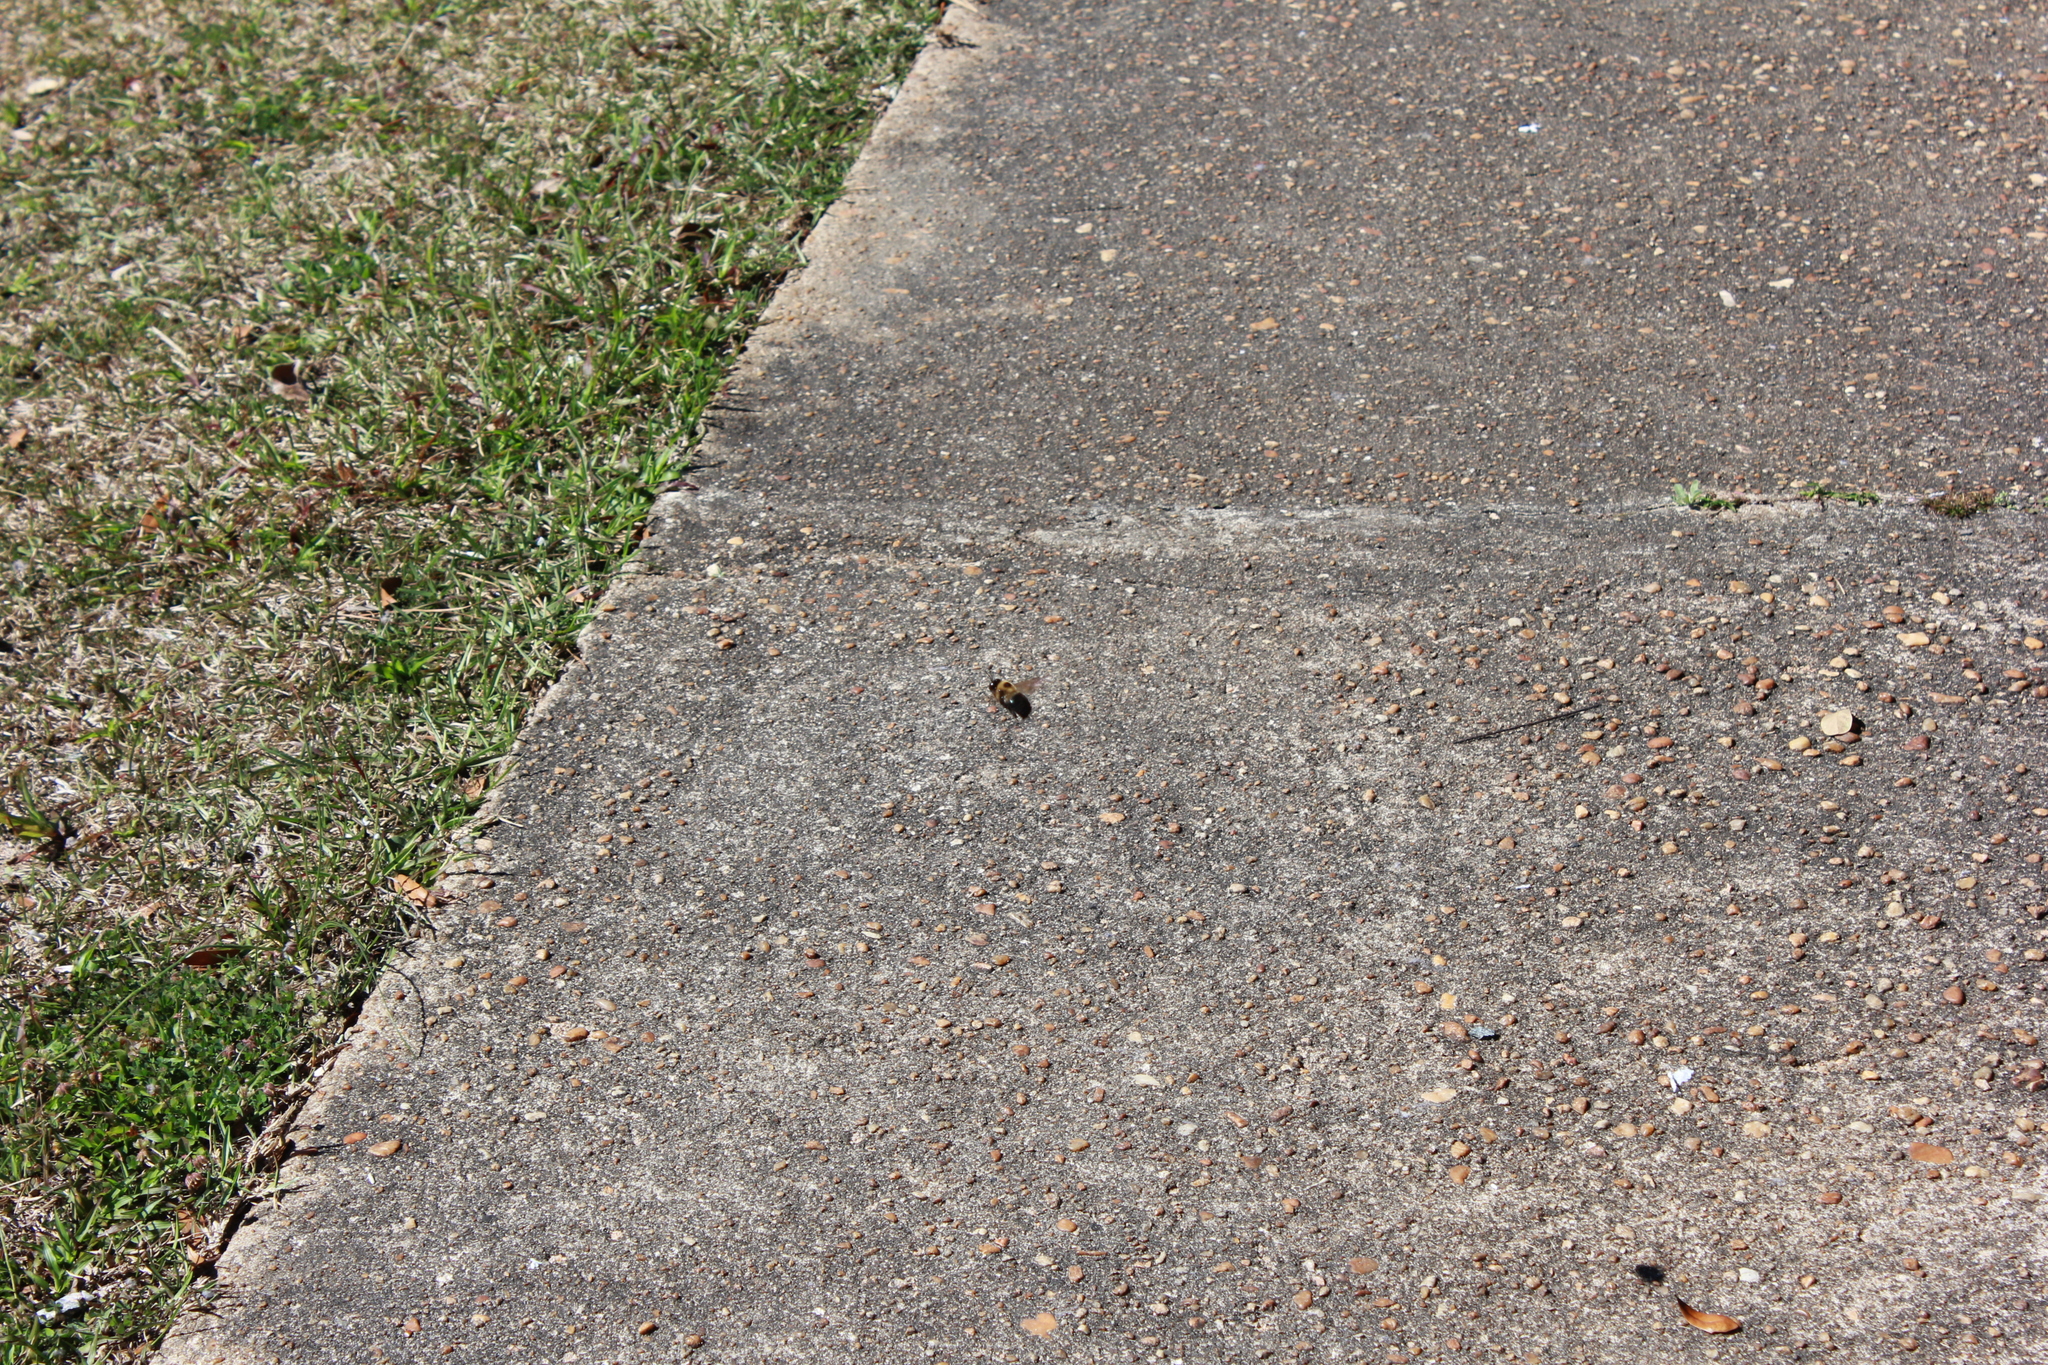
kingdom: Animalia
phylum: Arthropoda
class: Insecta
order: Hymenoptera
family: Apidae
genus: Xylocopa
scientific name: Xylocopa virginica
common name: Carpenter bee
